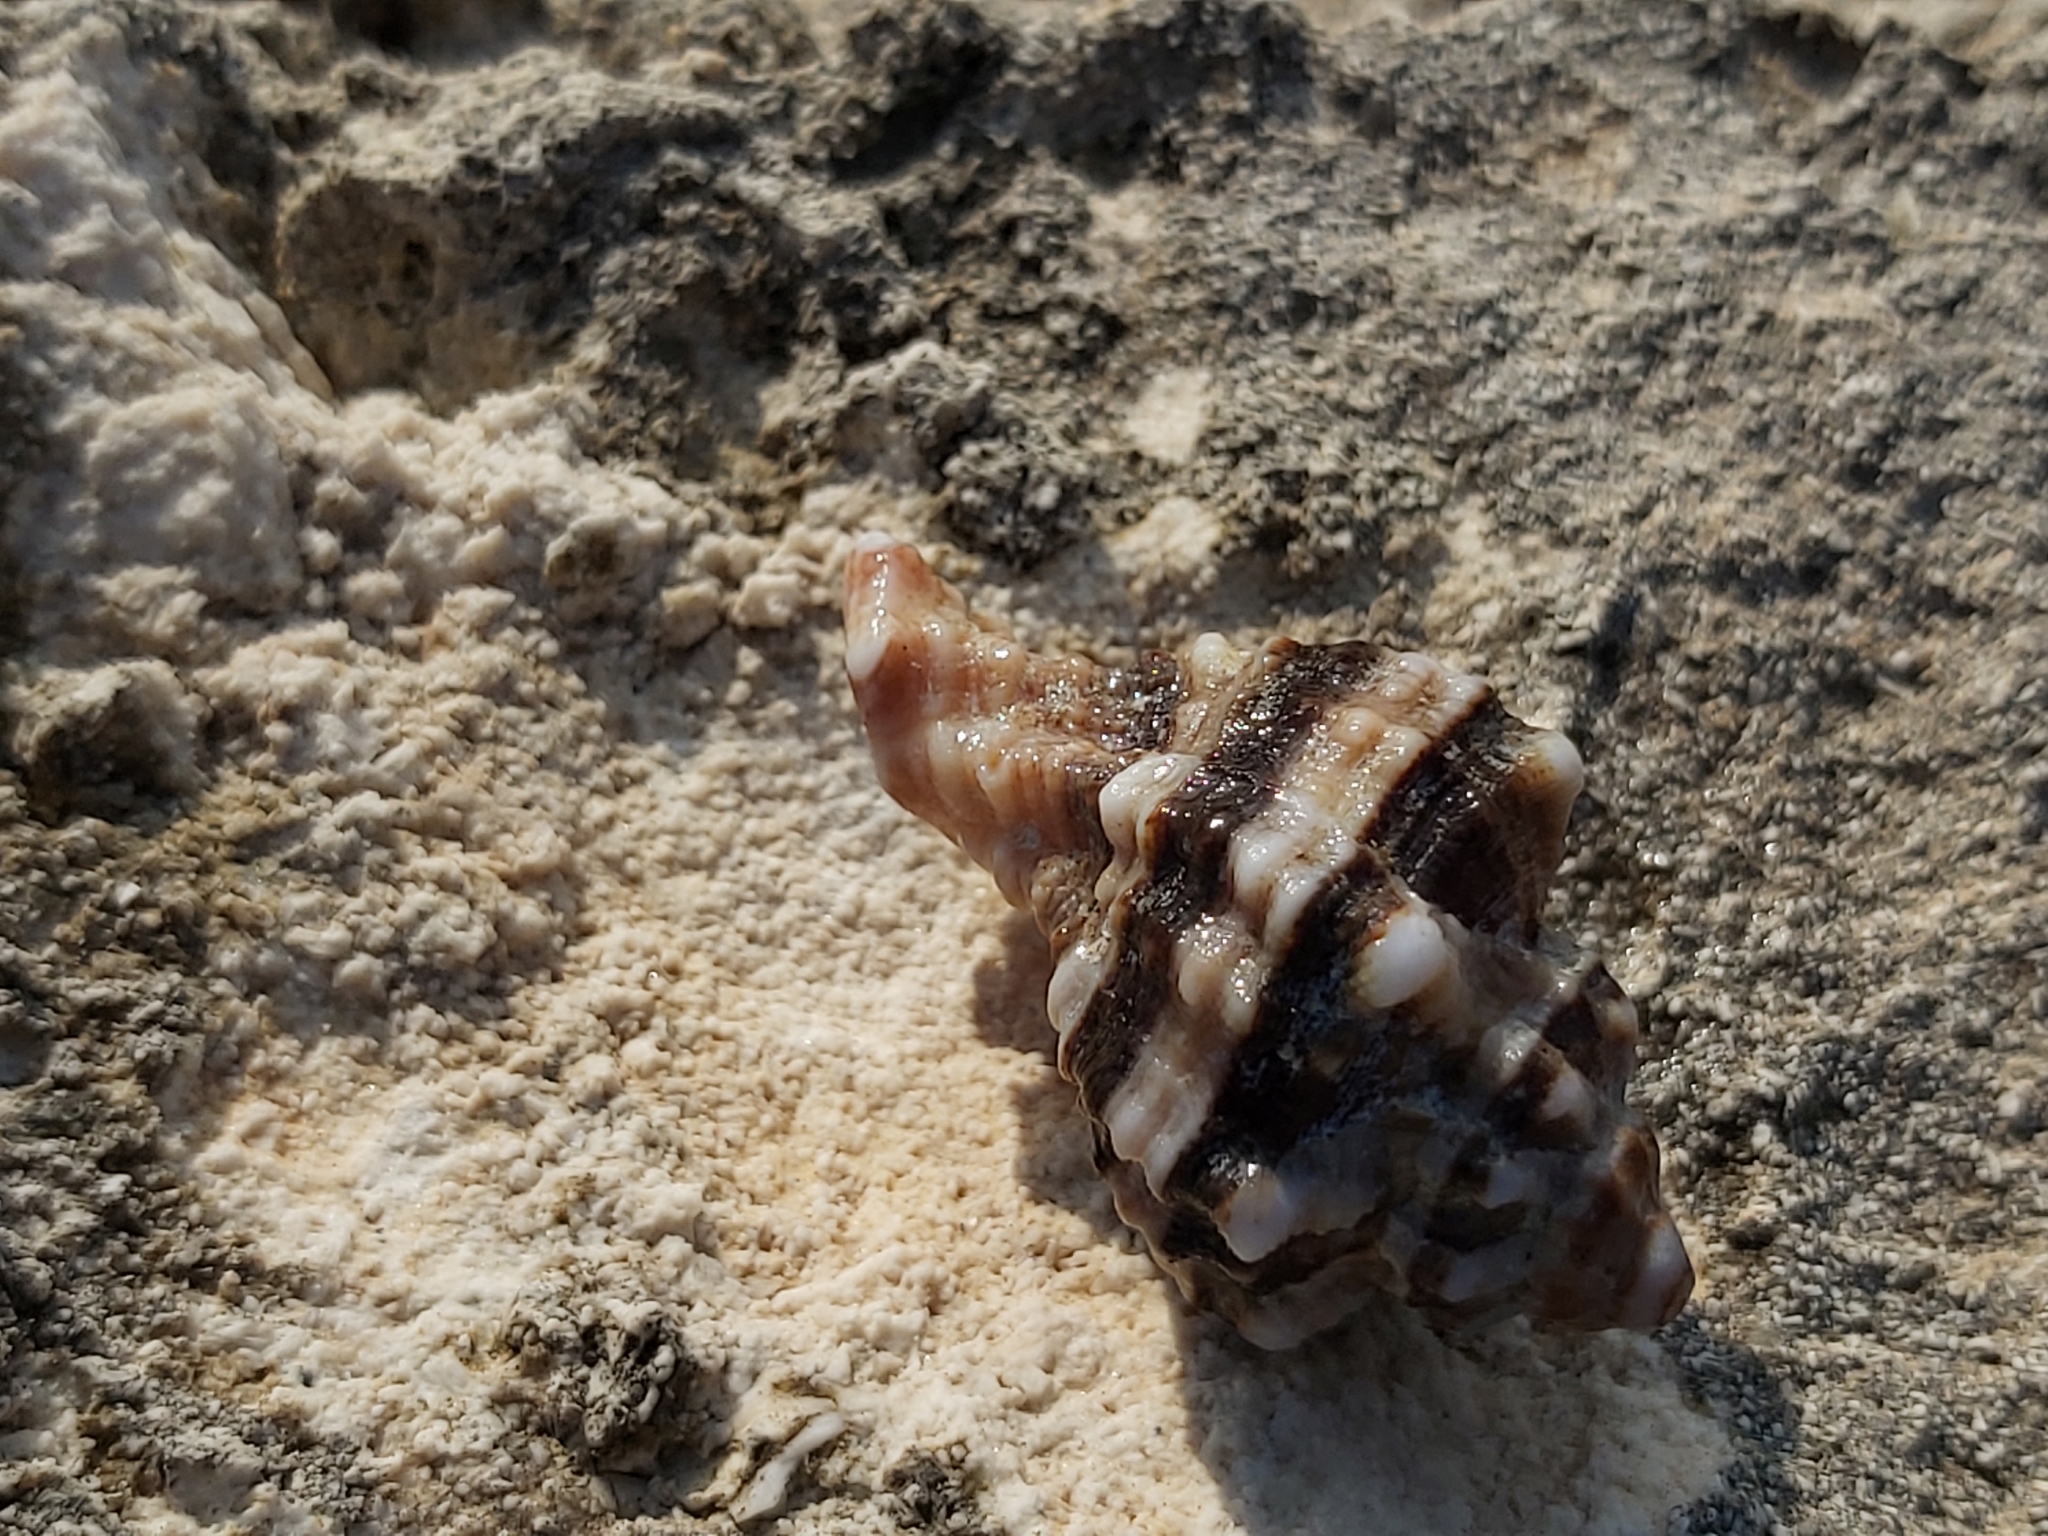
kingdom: Animalia
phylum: Mollusca
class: Gastropoda
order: Neogastropoda
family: Muricidae
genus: Hexaplex
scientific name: Hexaplex trunculus
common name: Banded dye-murex
